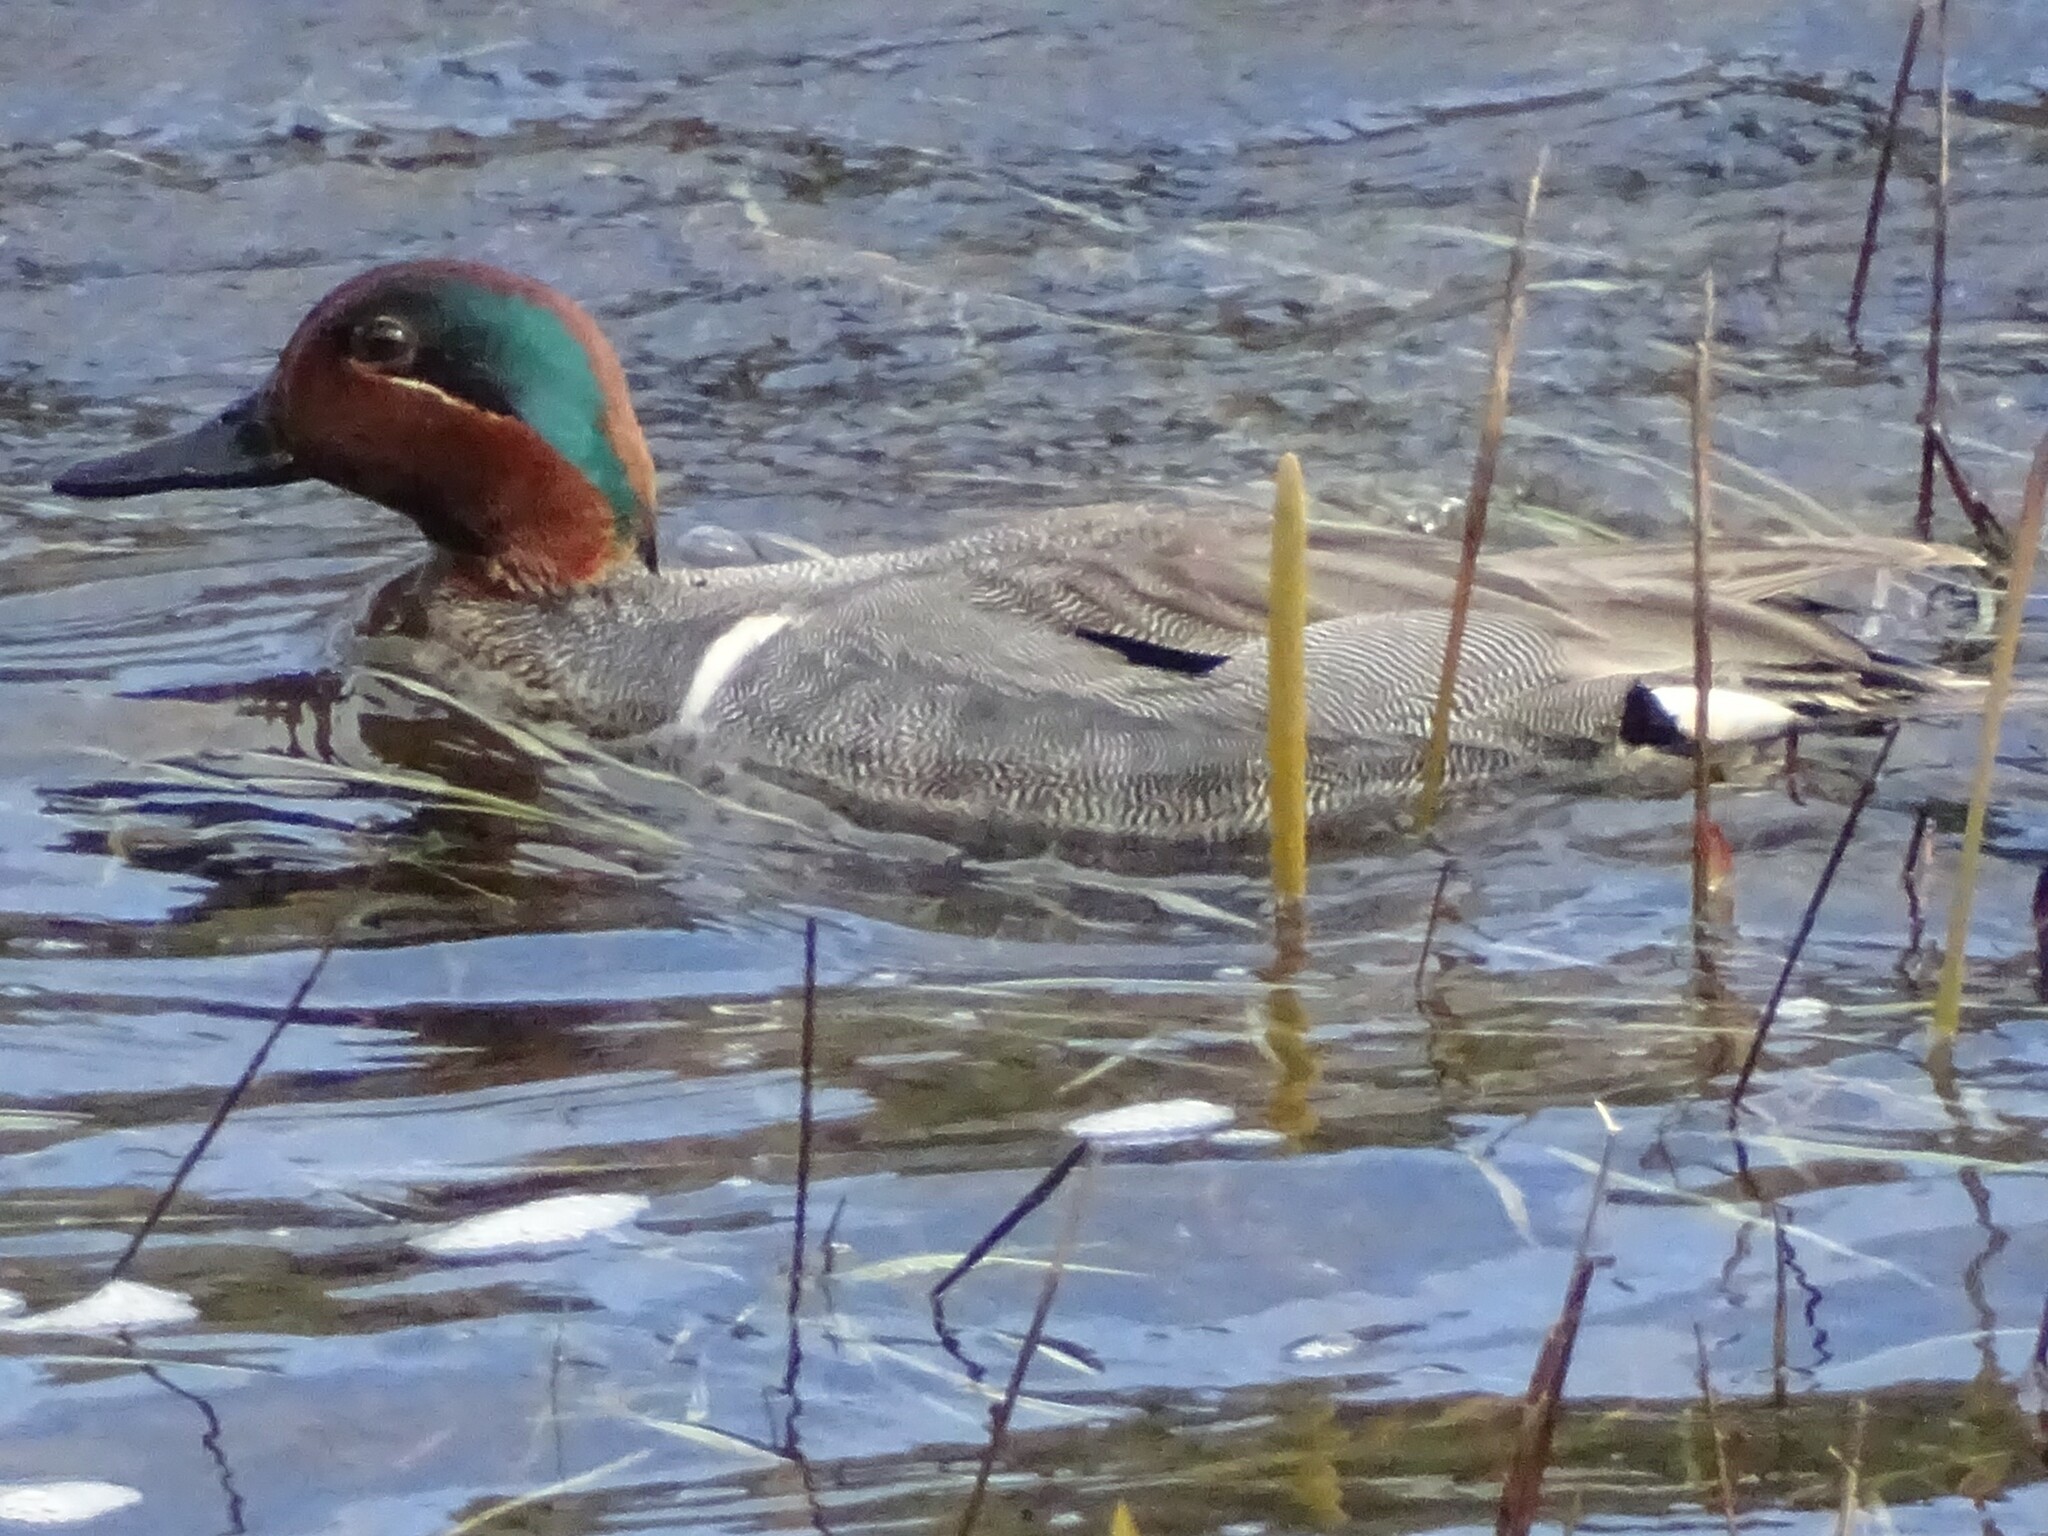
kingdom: Animalia
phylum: Chordata
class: Aves
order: Anseriformes
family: Anatidae
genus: Anas
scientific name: Anas crecca
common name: Eurasian teal
